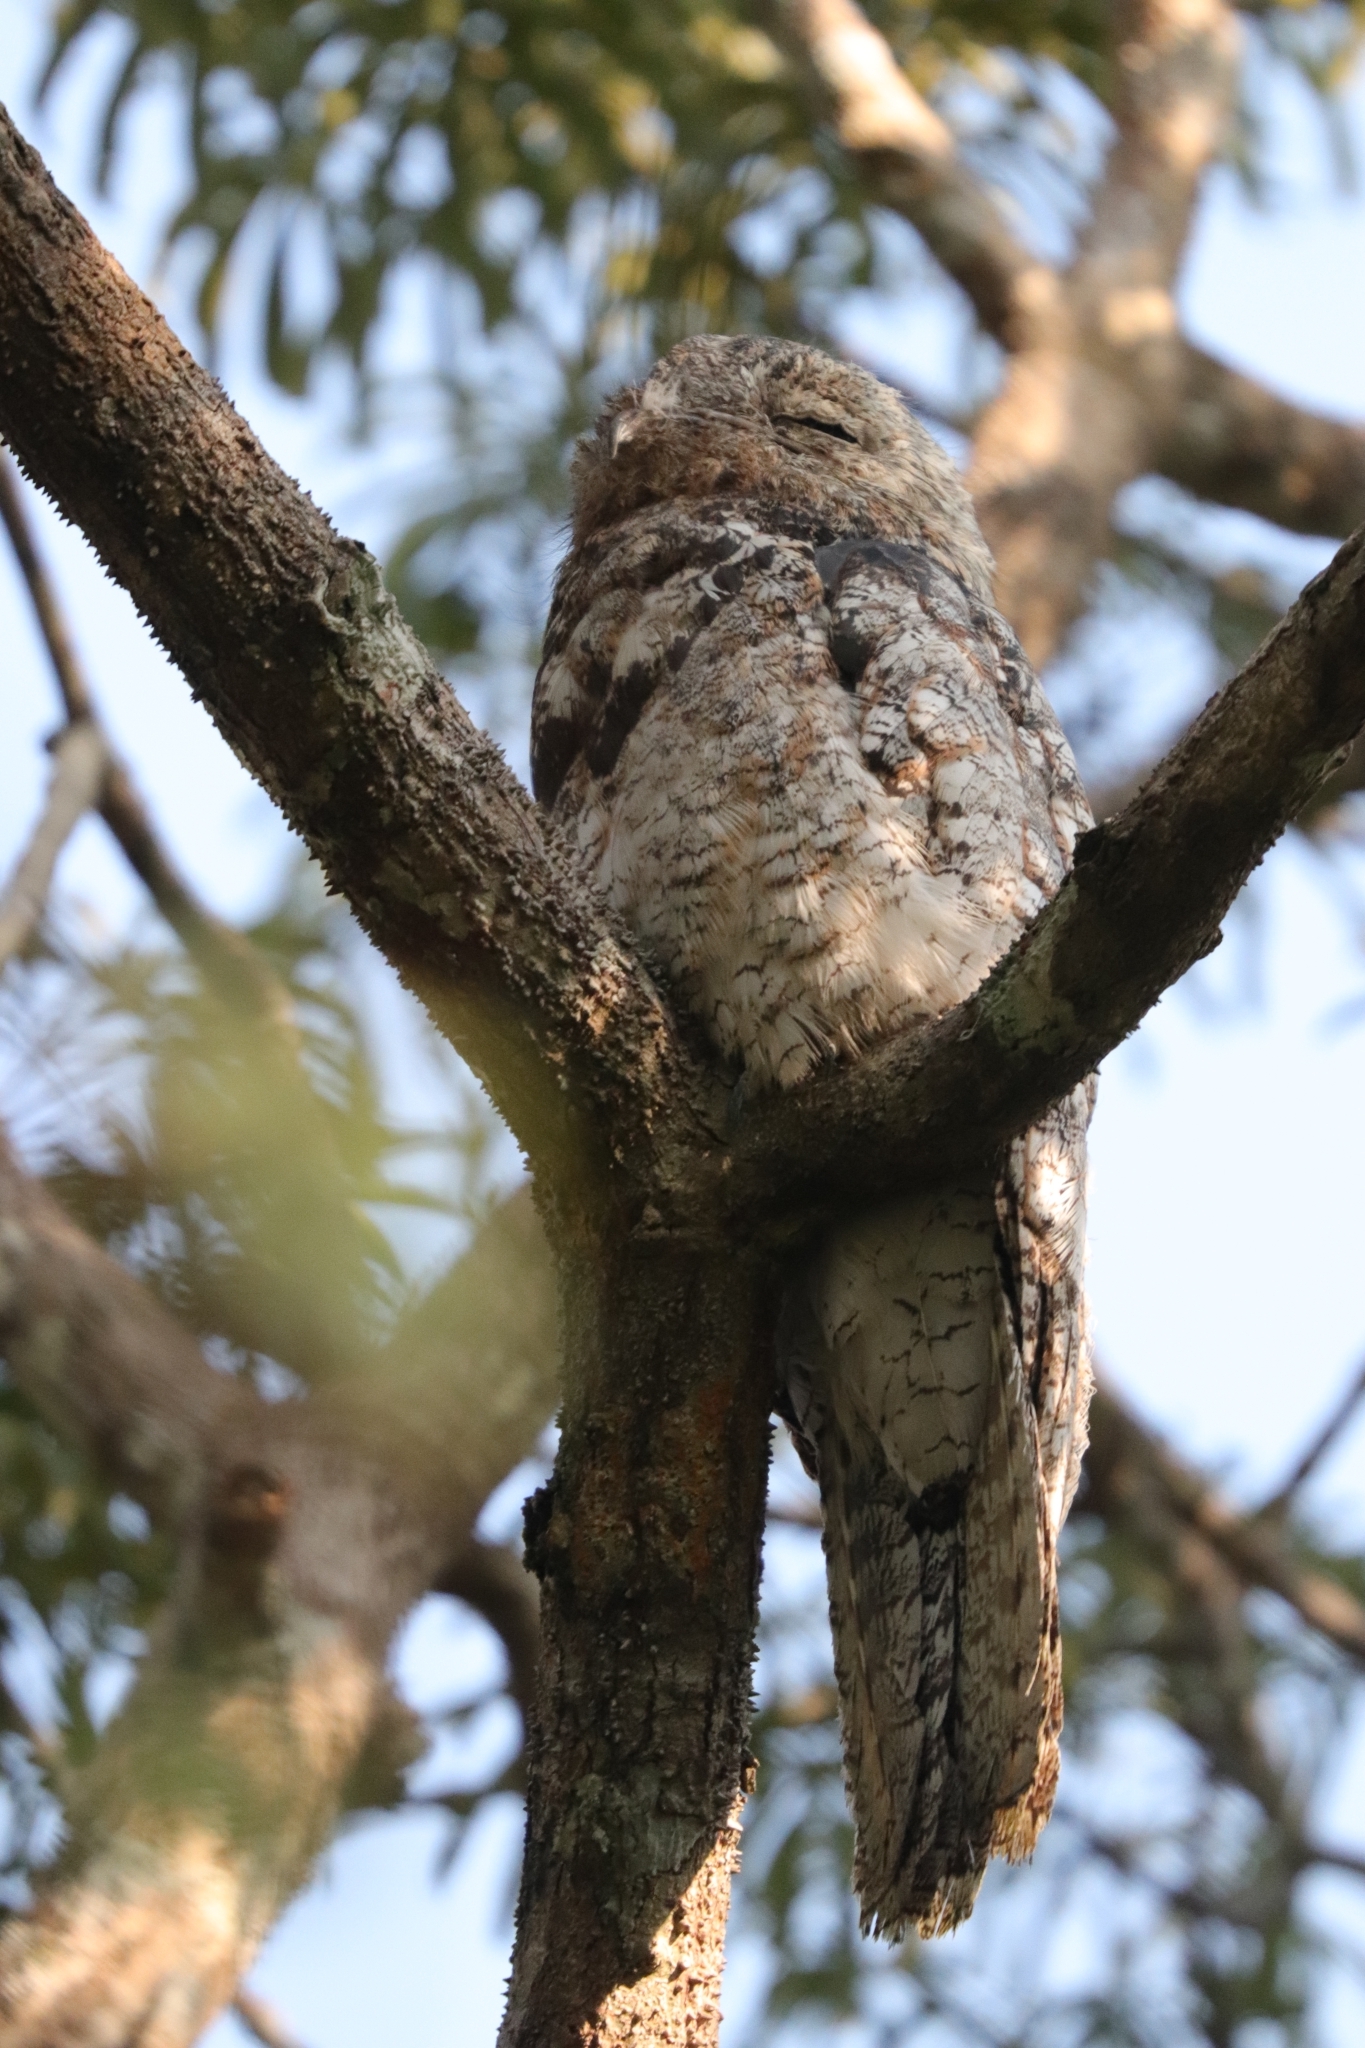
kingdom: Animalia
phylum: Chordata
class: Aves
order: Nyctibiiformes
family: Nyctibiidae
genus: Nyctibius
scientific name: Nyctibius grandis
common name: Great potoo
